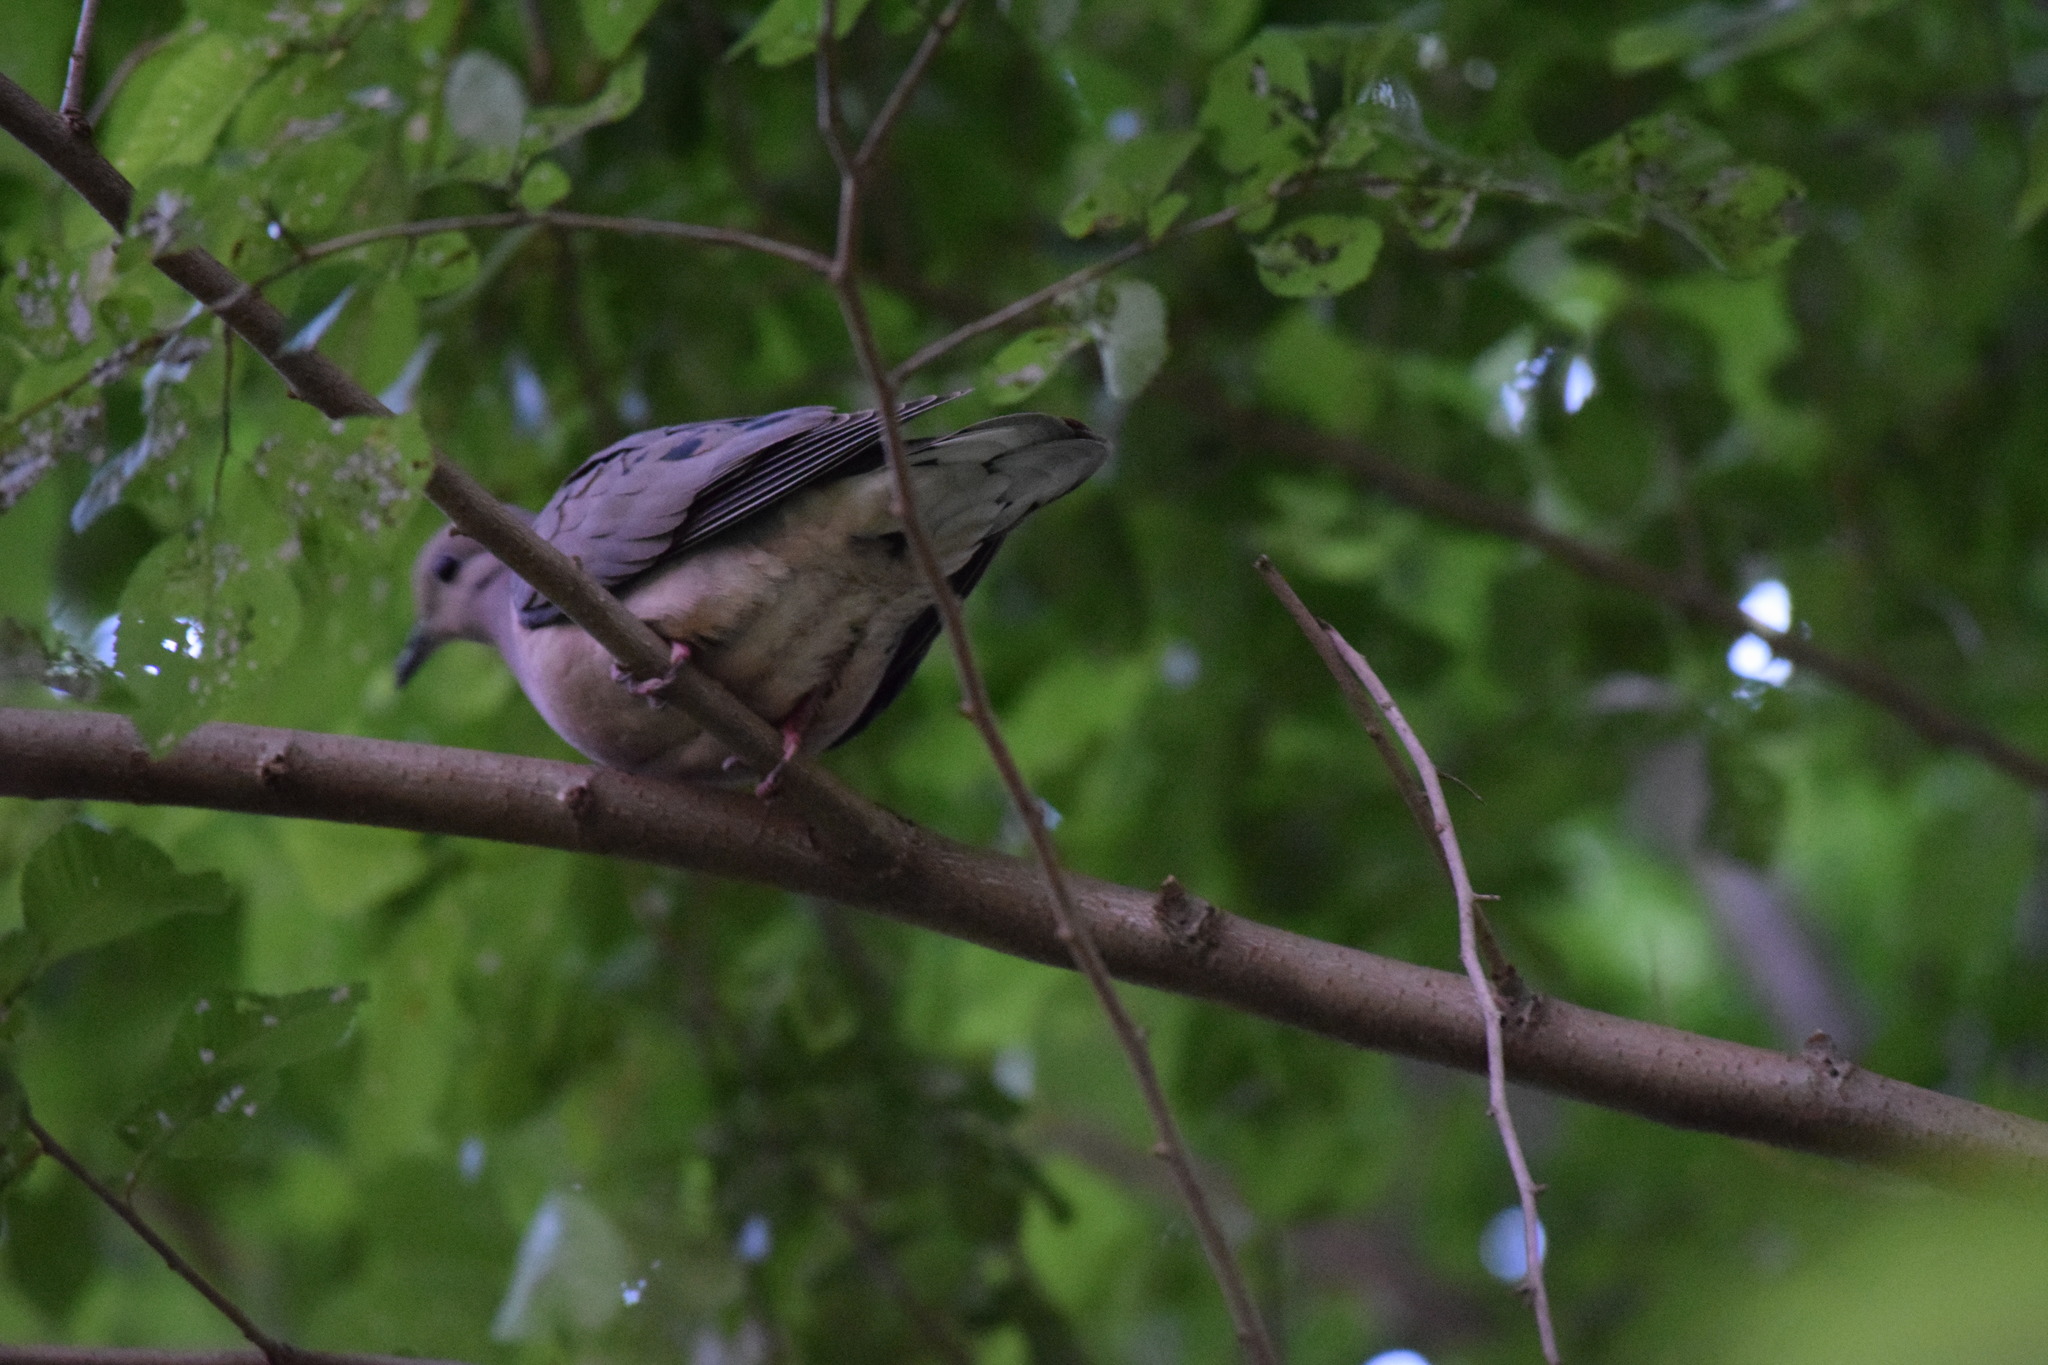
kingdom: Animalia
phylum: Chordata
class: Aves
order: Columbiformes
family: Columbidae
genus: Zenaida
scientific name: Zenaida auriculata
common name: Eared dove
